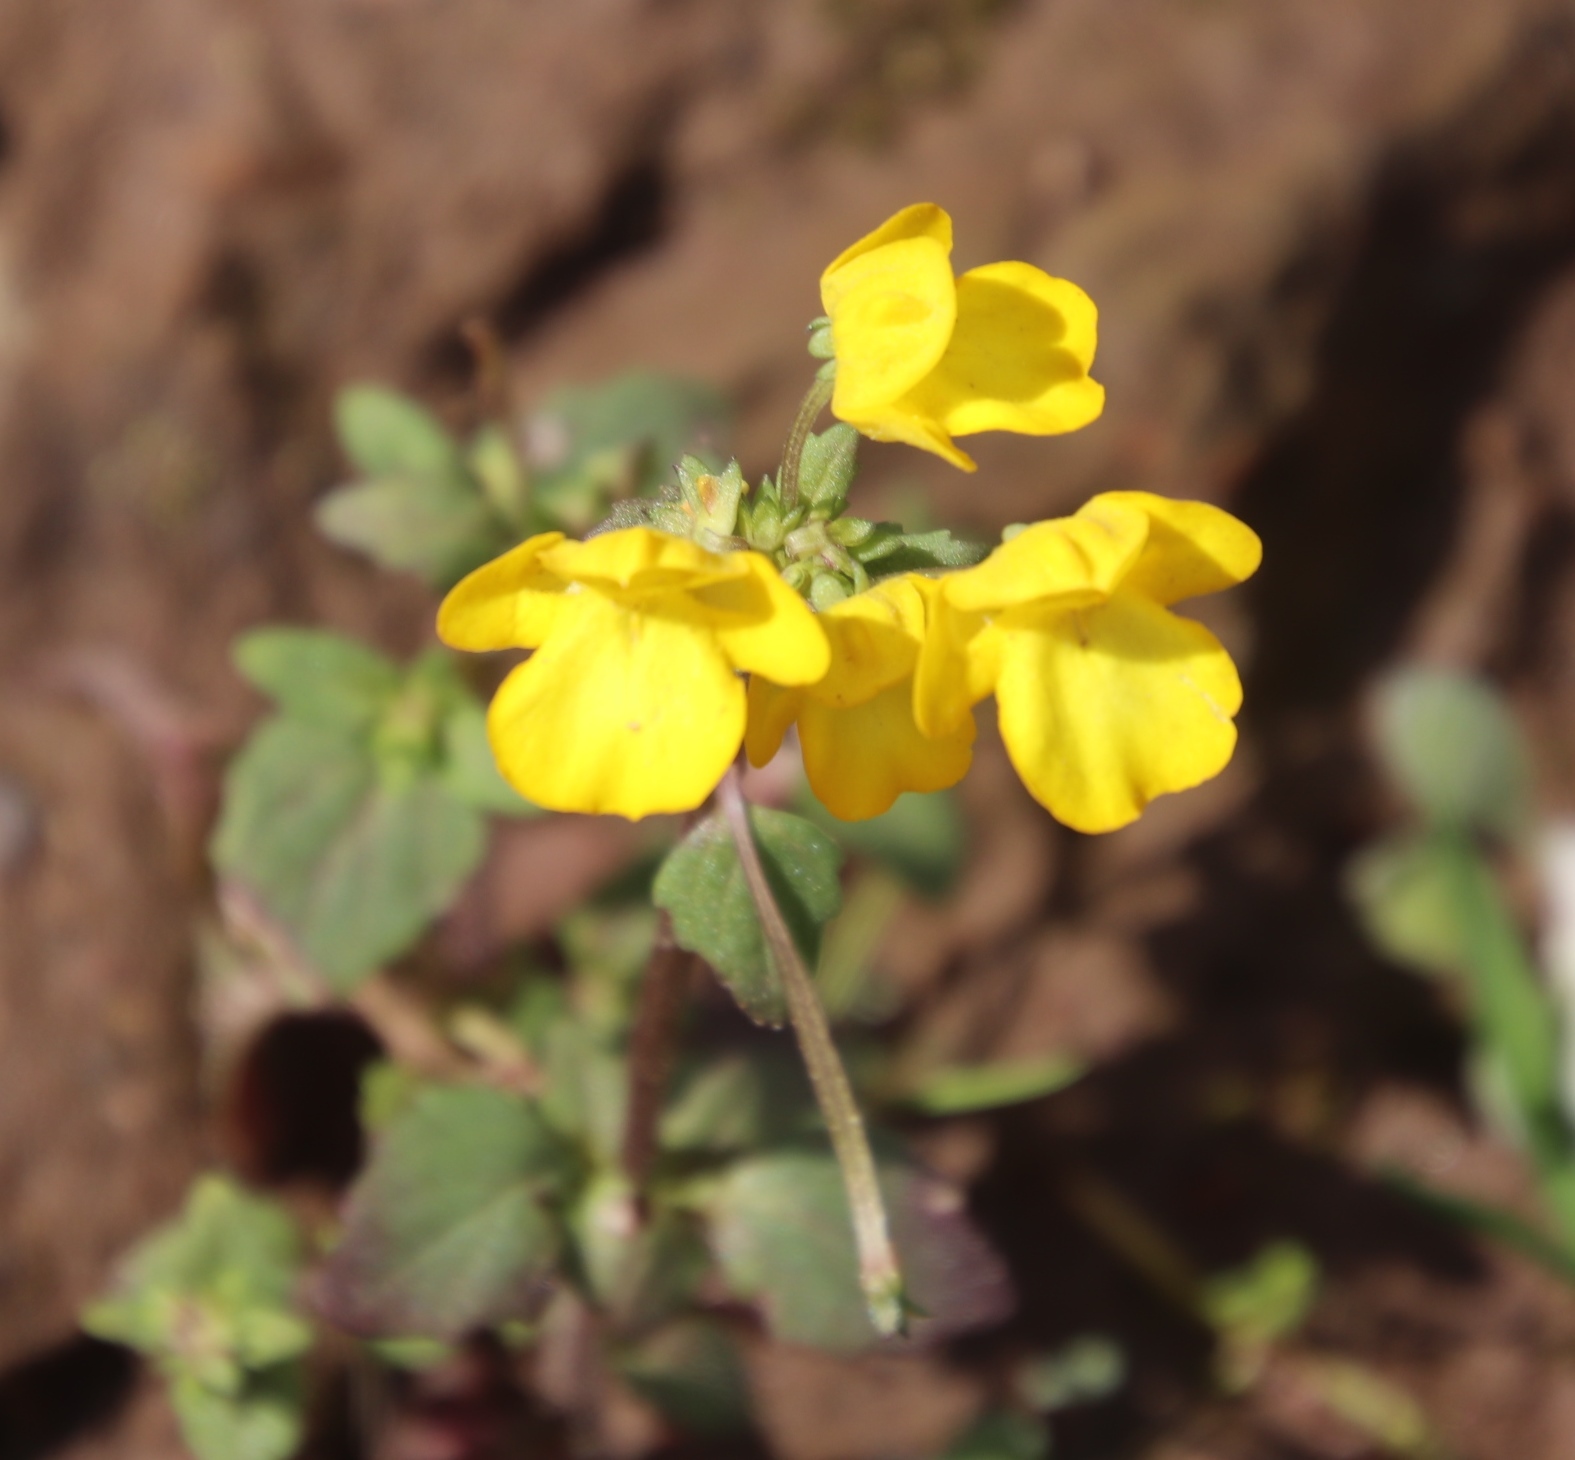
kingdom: Plantae
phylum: Tracheophyta
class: Magnoliopsida
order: Lamiales
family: Scrophulariaceae
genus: Hemimeris
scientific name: Hemimeris racemosa
